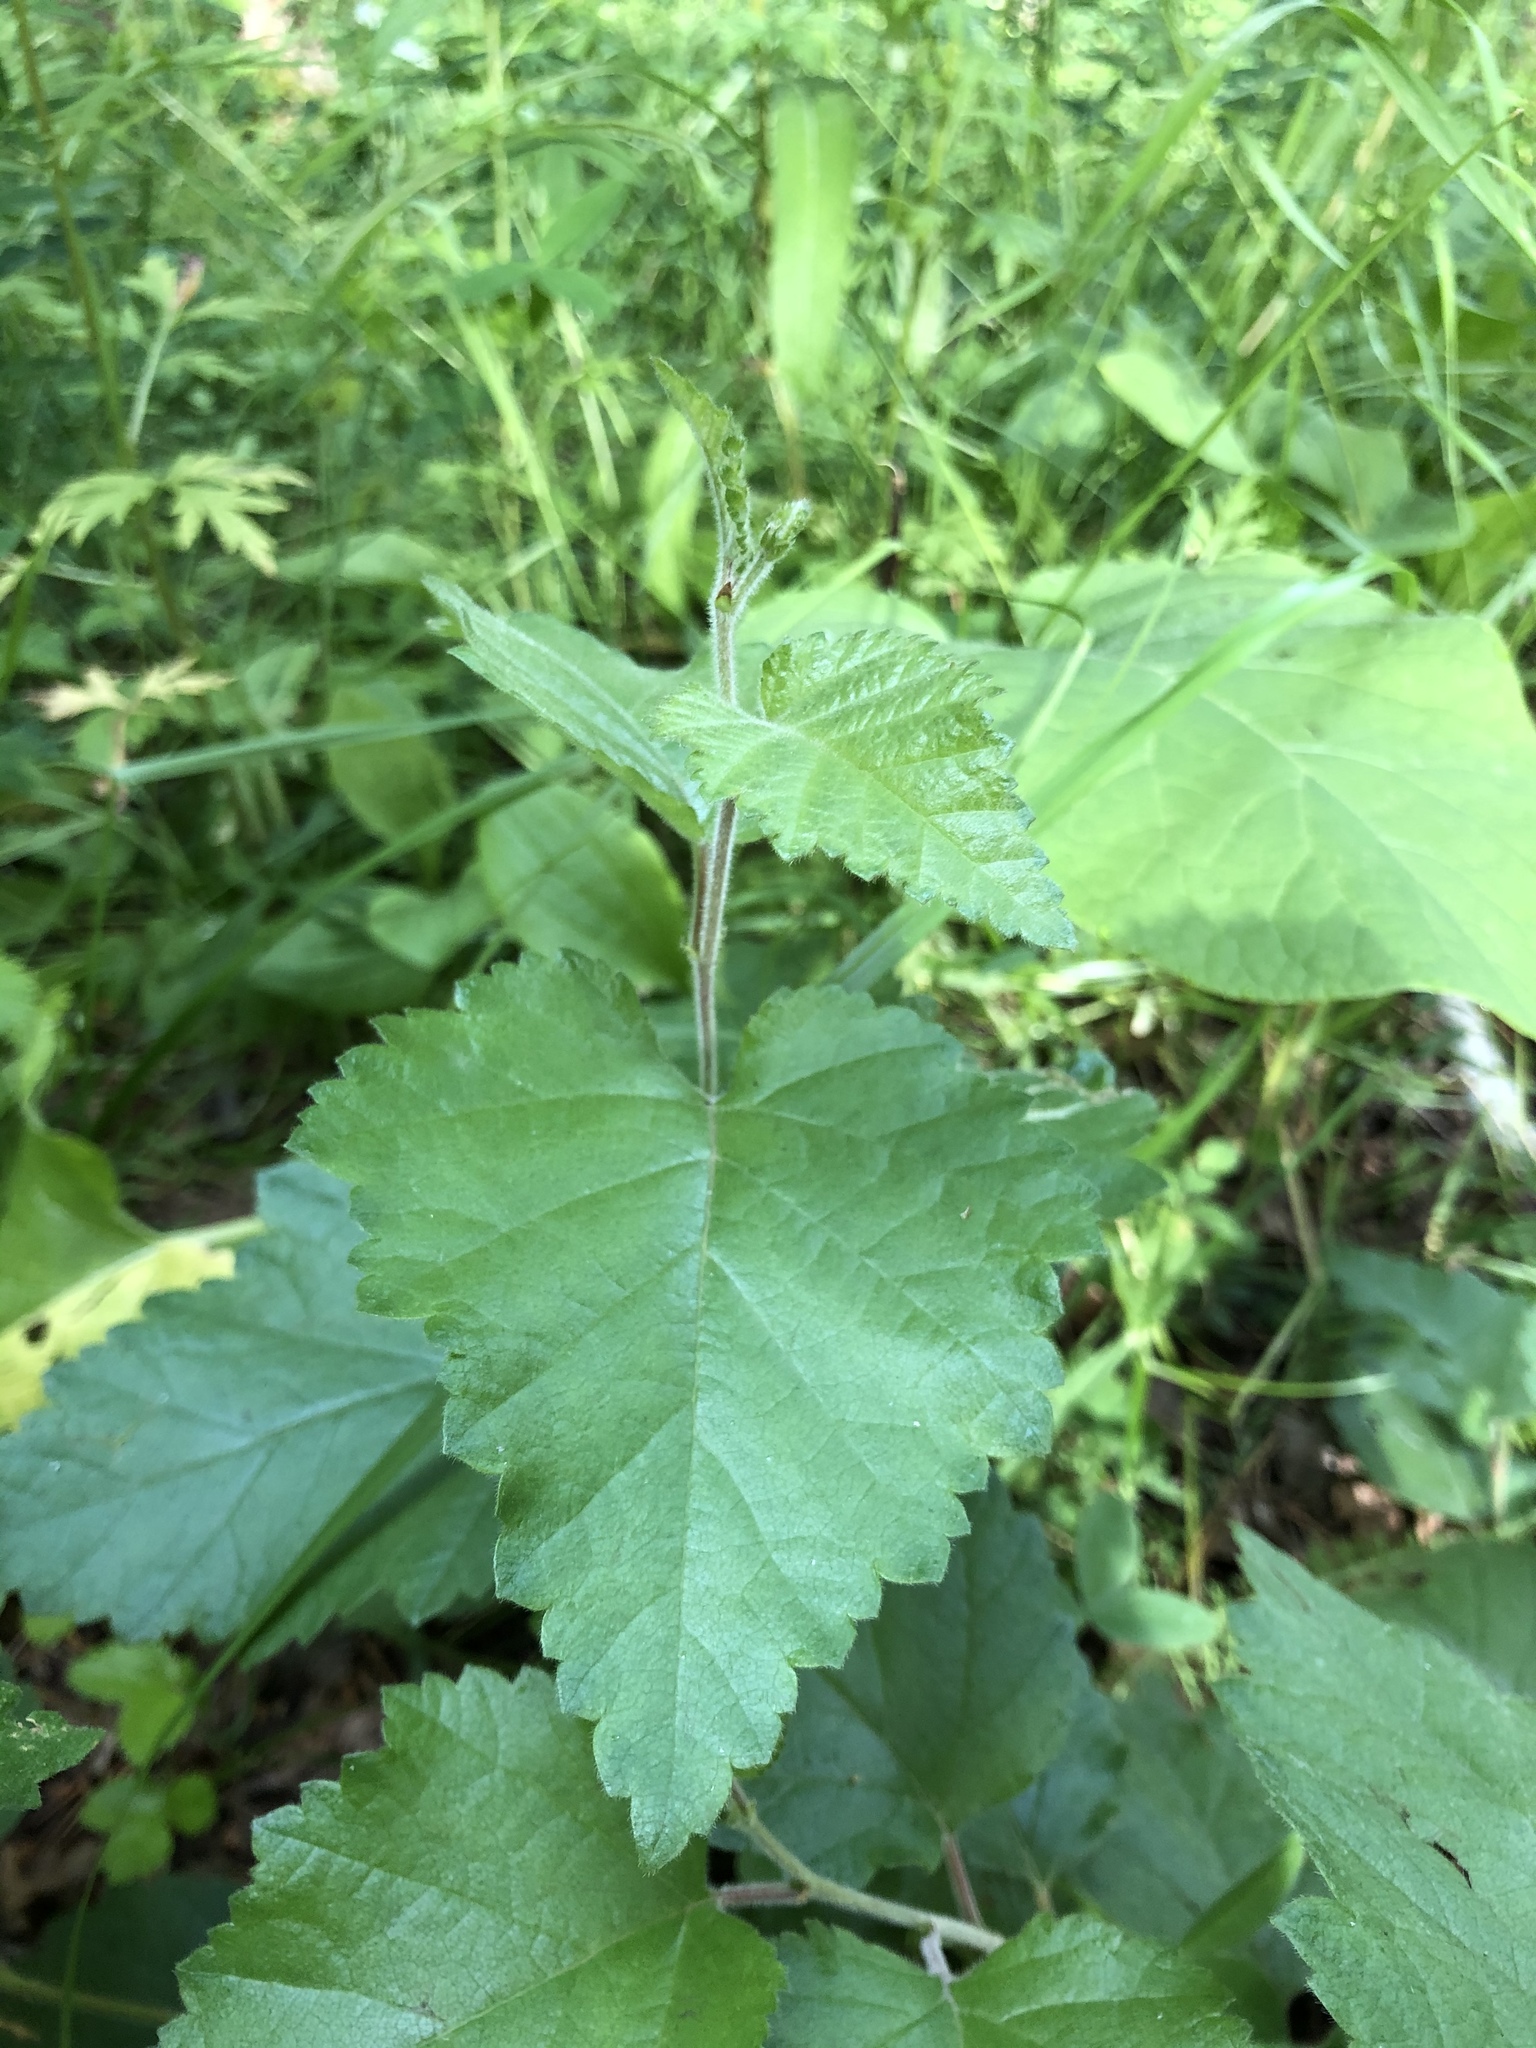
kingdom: Plantae
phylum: Tracheophyta
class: Magnoliopsida
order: Fagales
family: Betulaceae
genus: Betula
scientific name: Betula pubescens
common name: Downy birch
